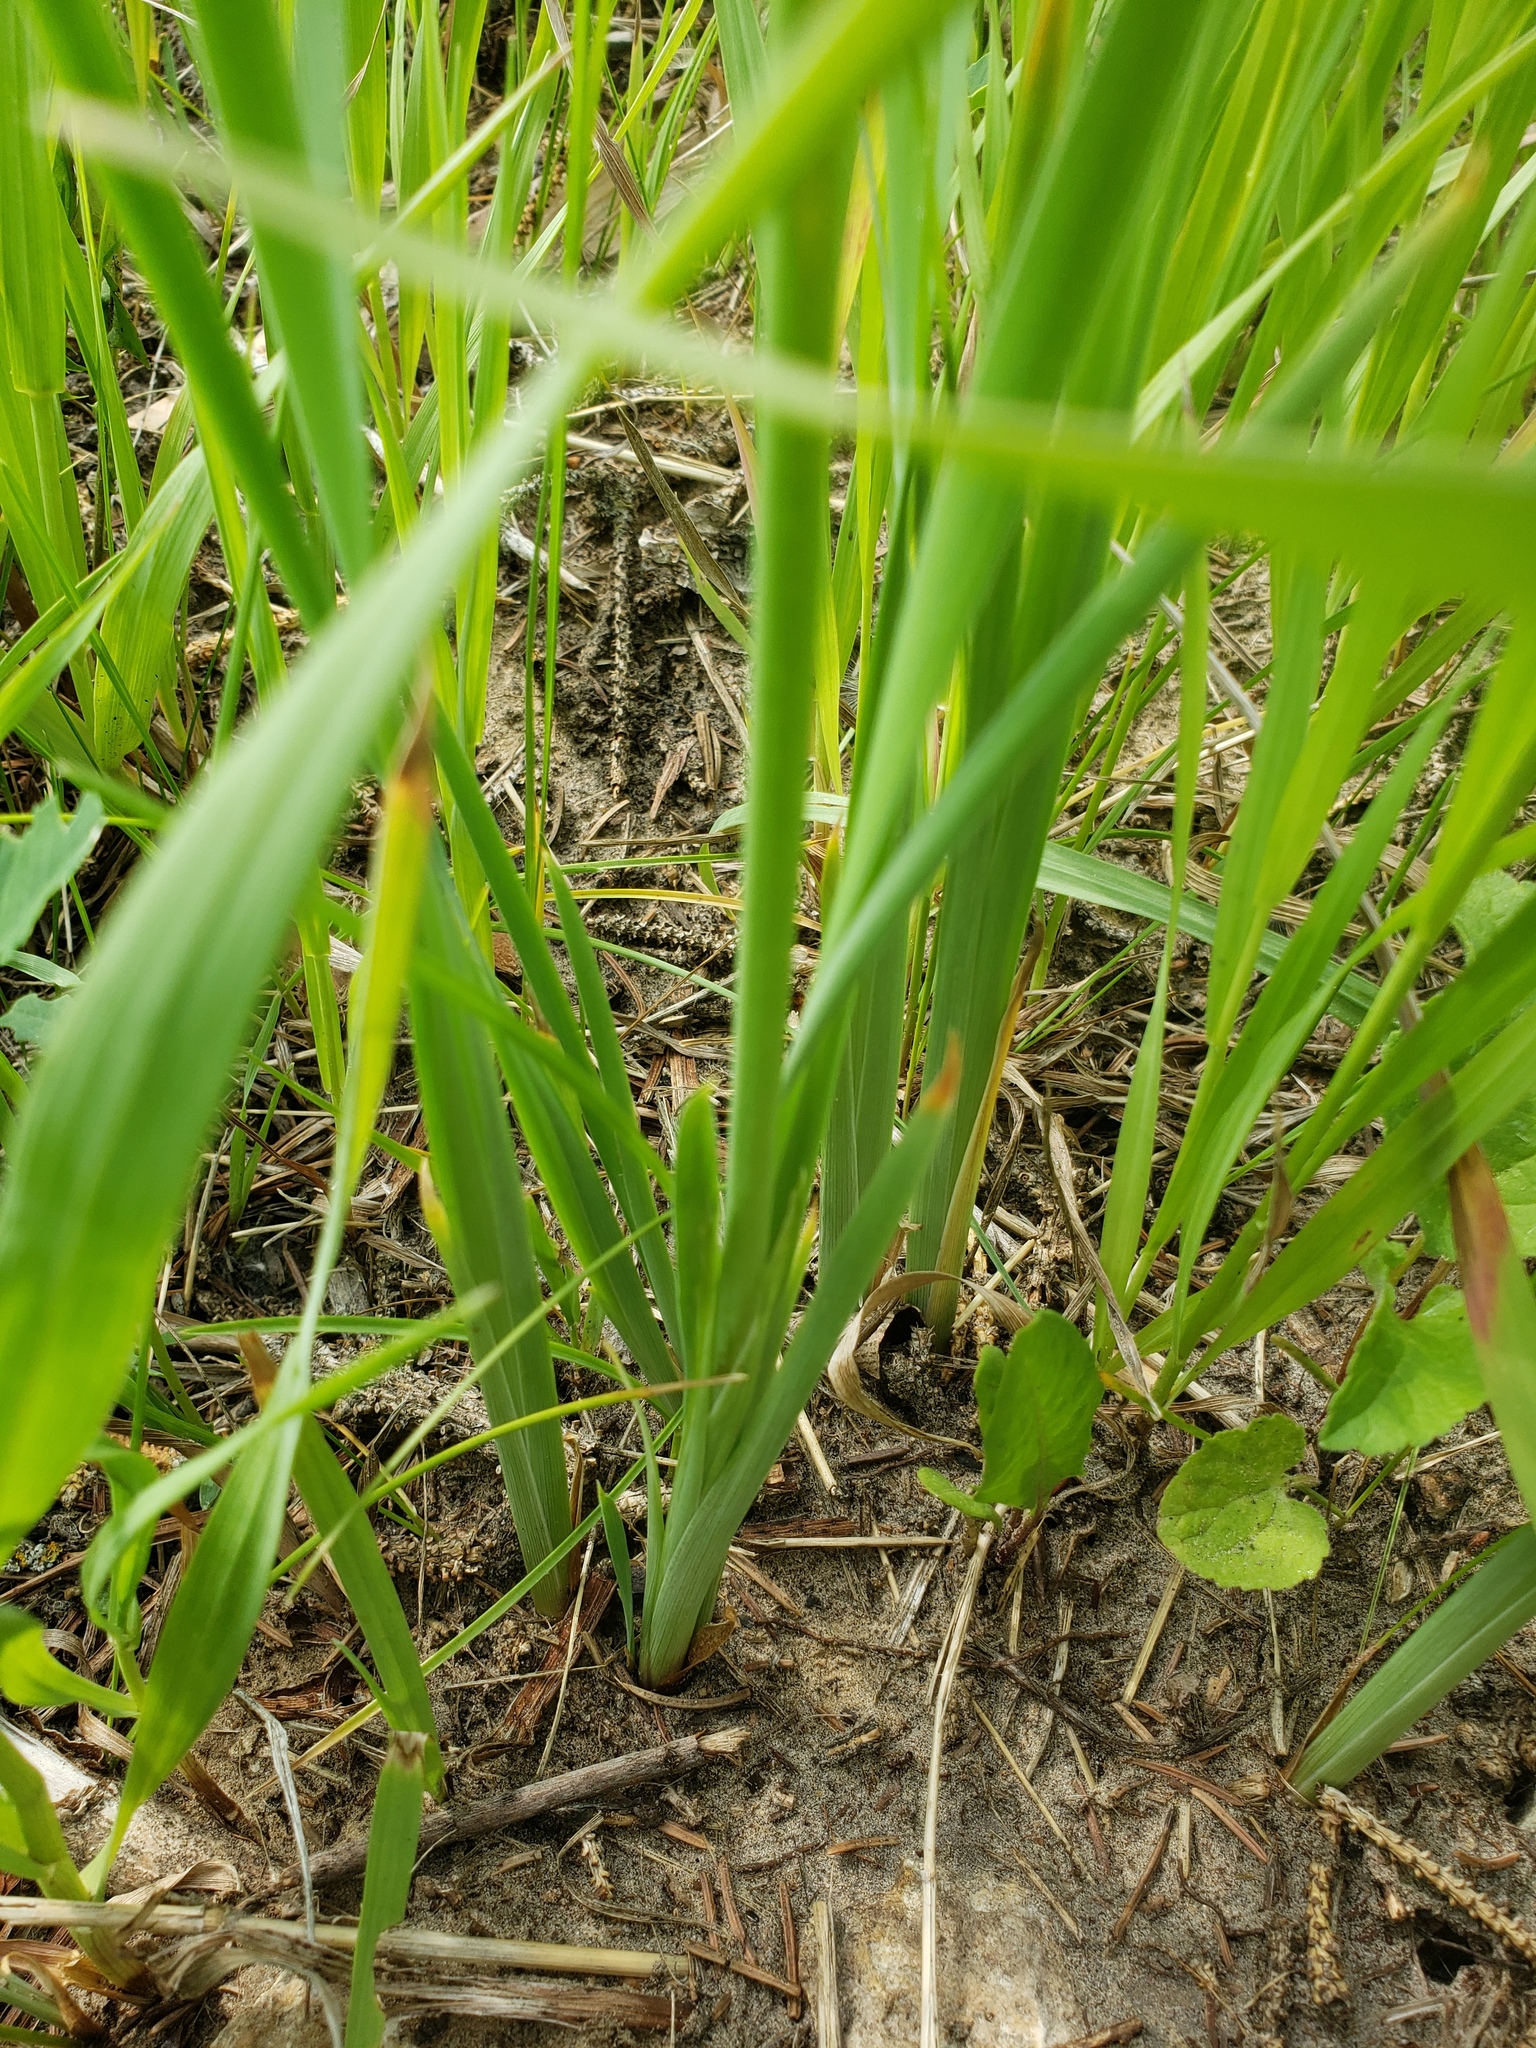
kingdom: Plantae
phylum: Tracheophyta
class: Liliopsida
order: Asparagales
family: Iridaceae
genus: Iris
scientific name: Iris versicolor
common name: Purple iris
